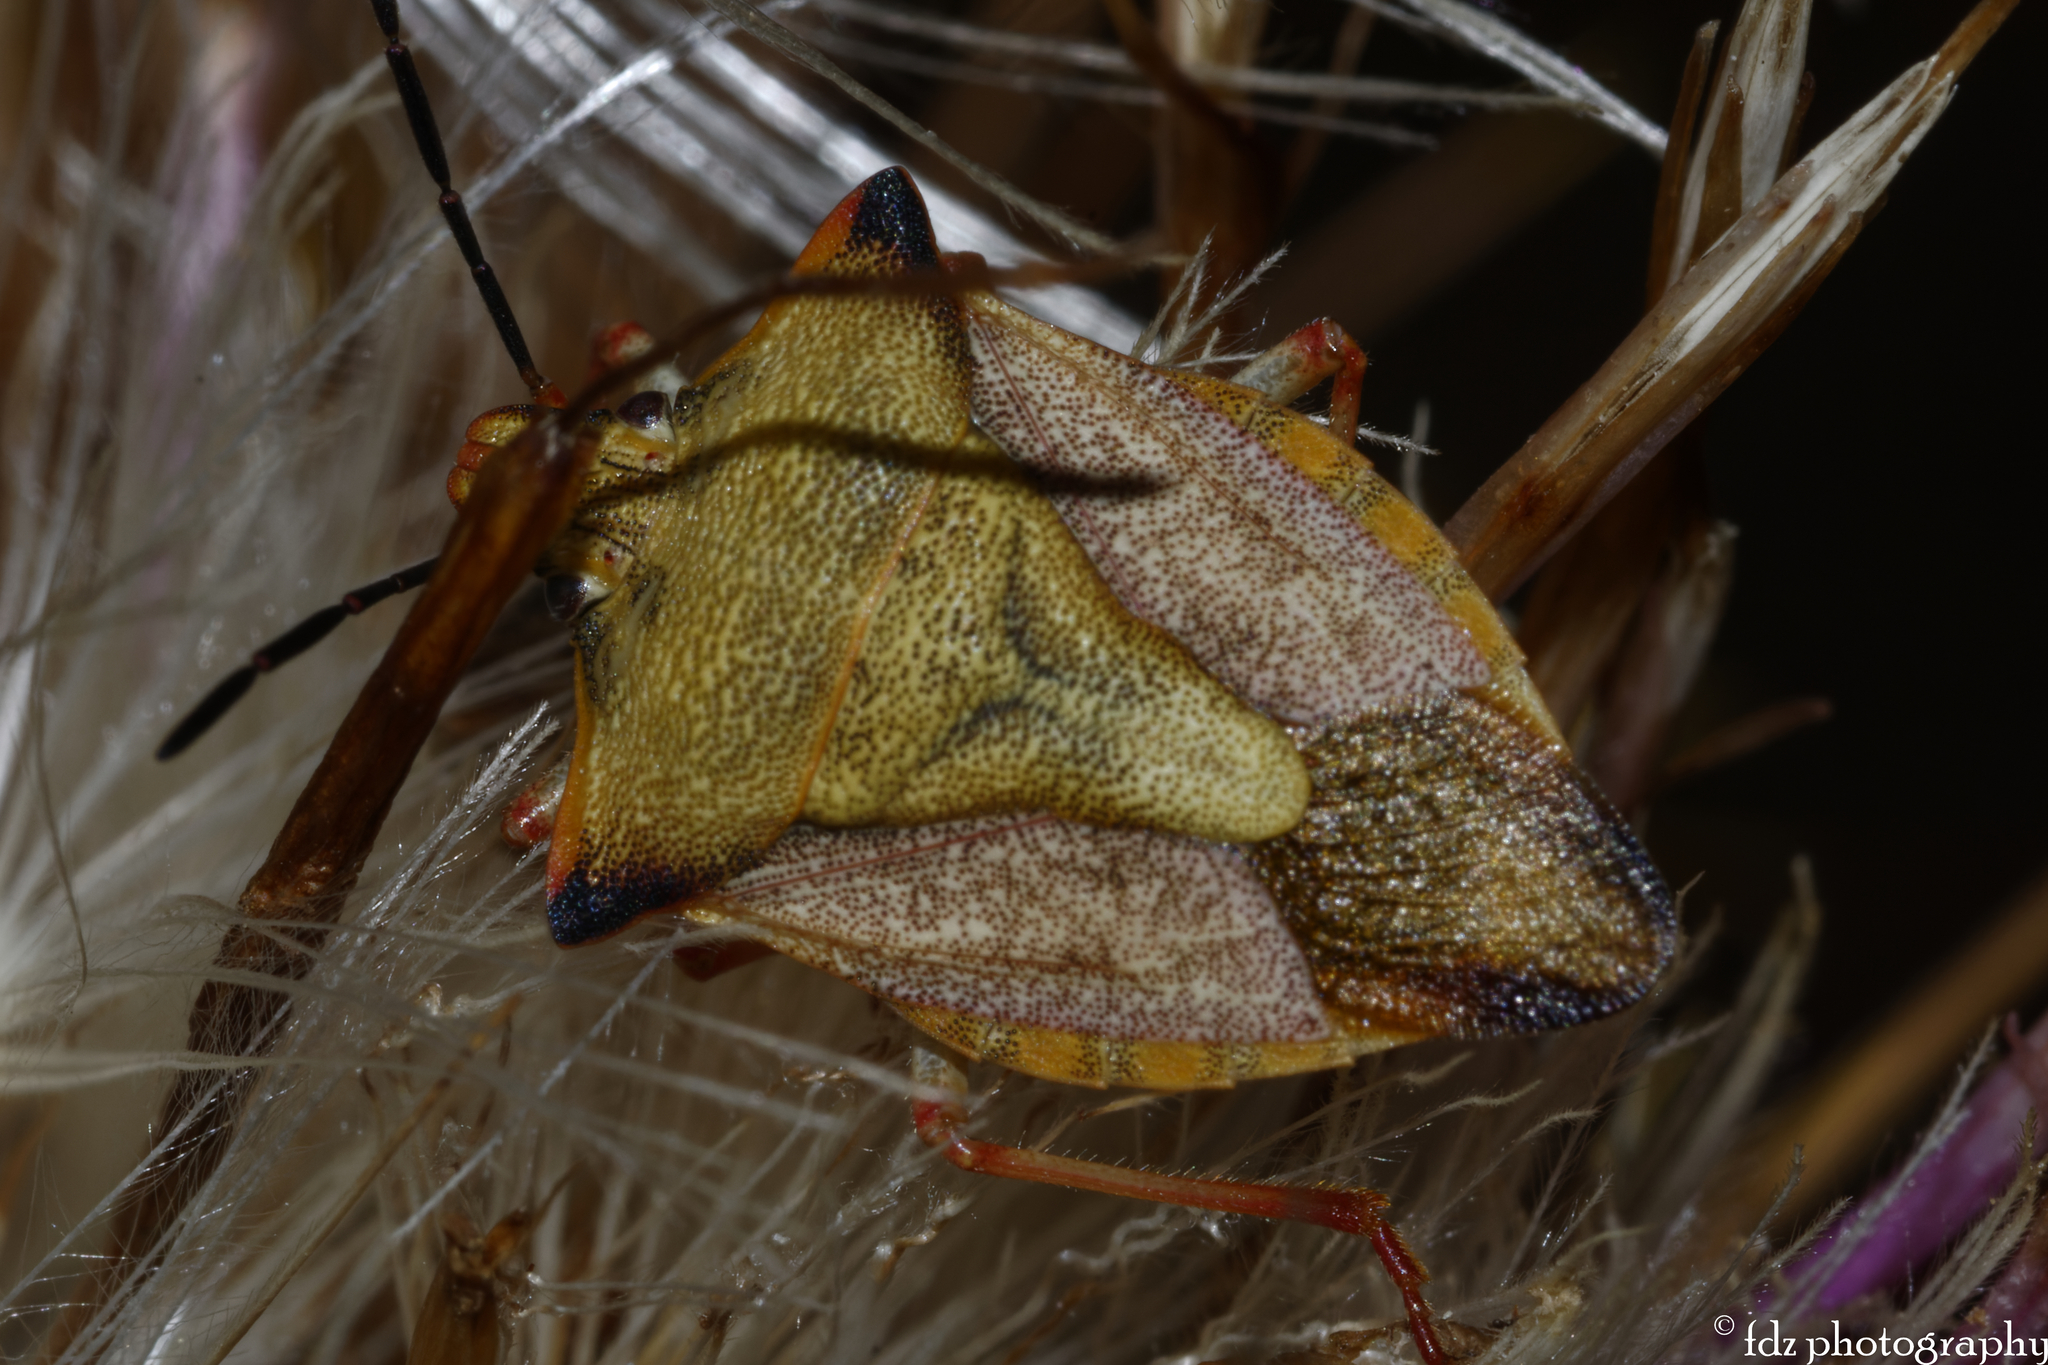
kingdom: Animalia
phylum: Arthropoda
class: Insecta
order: Hemiptera
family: Pentatomidae
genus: Carpocoris
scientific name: Carpocoris mediterraneus
